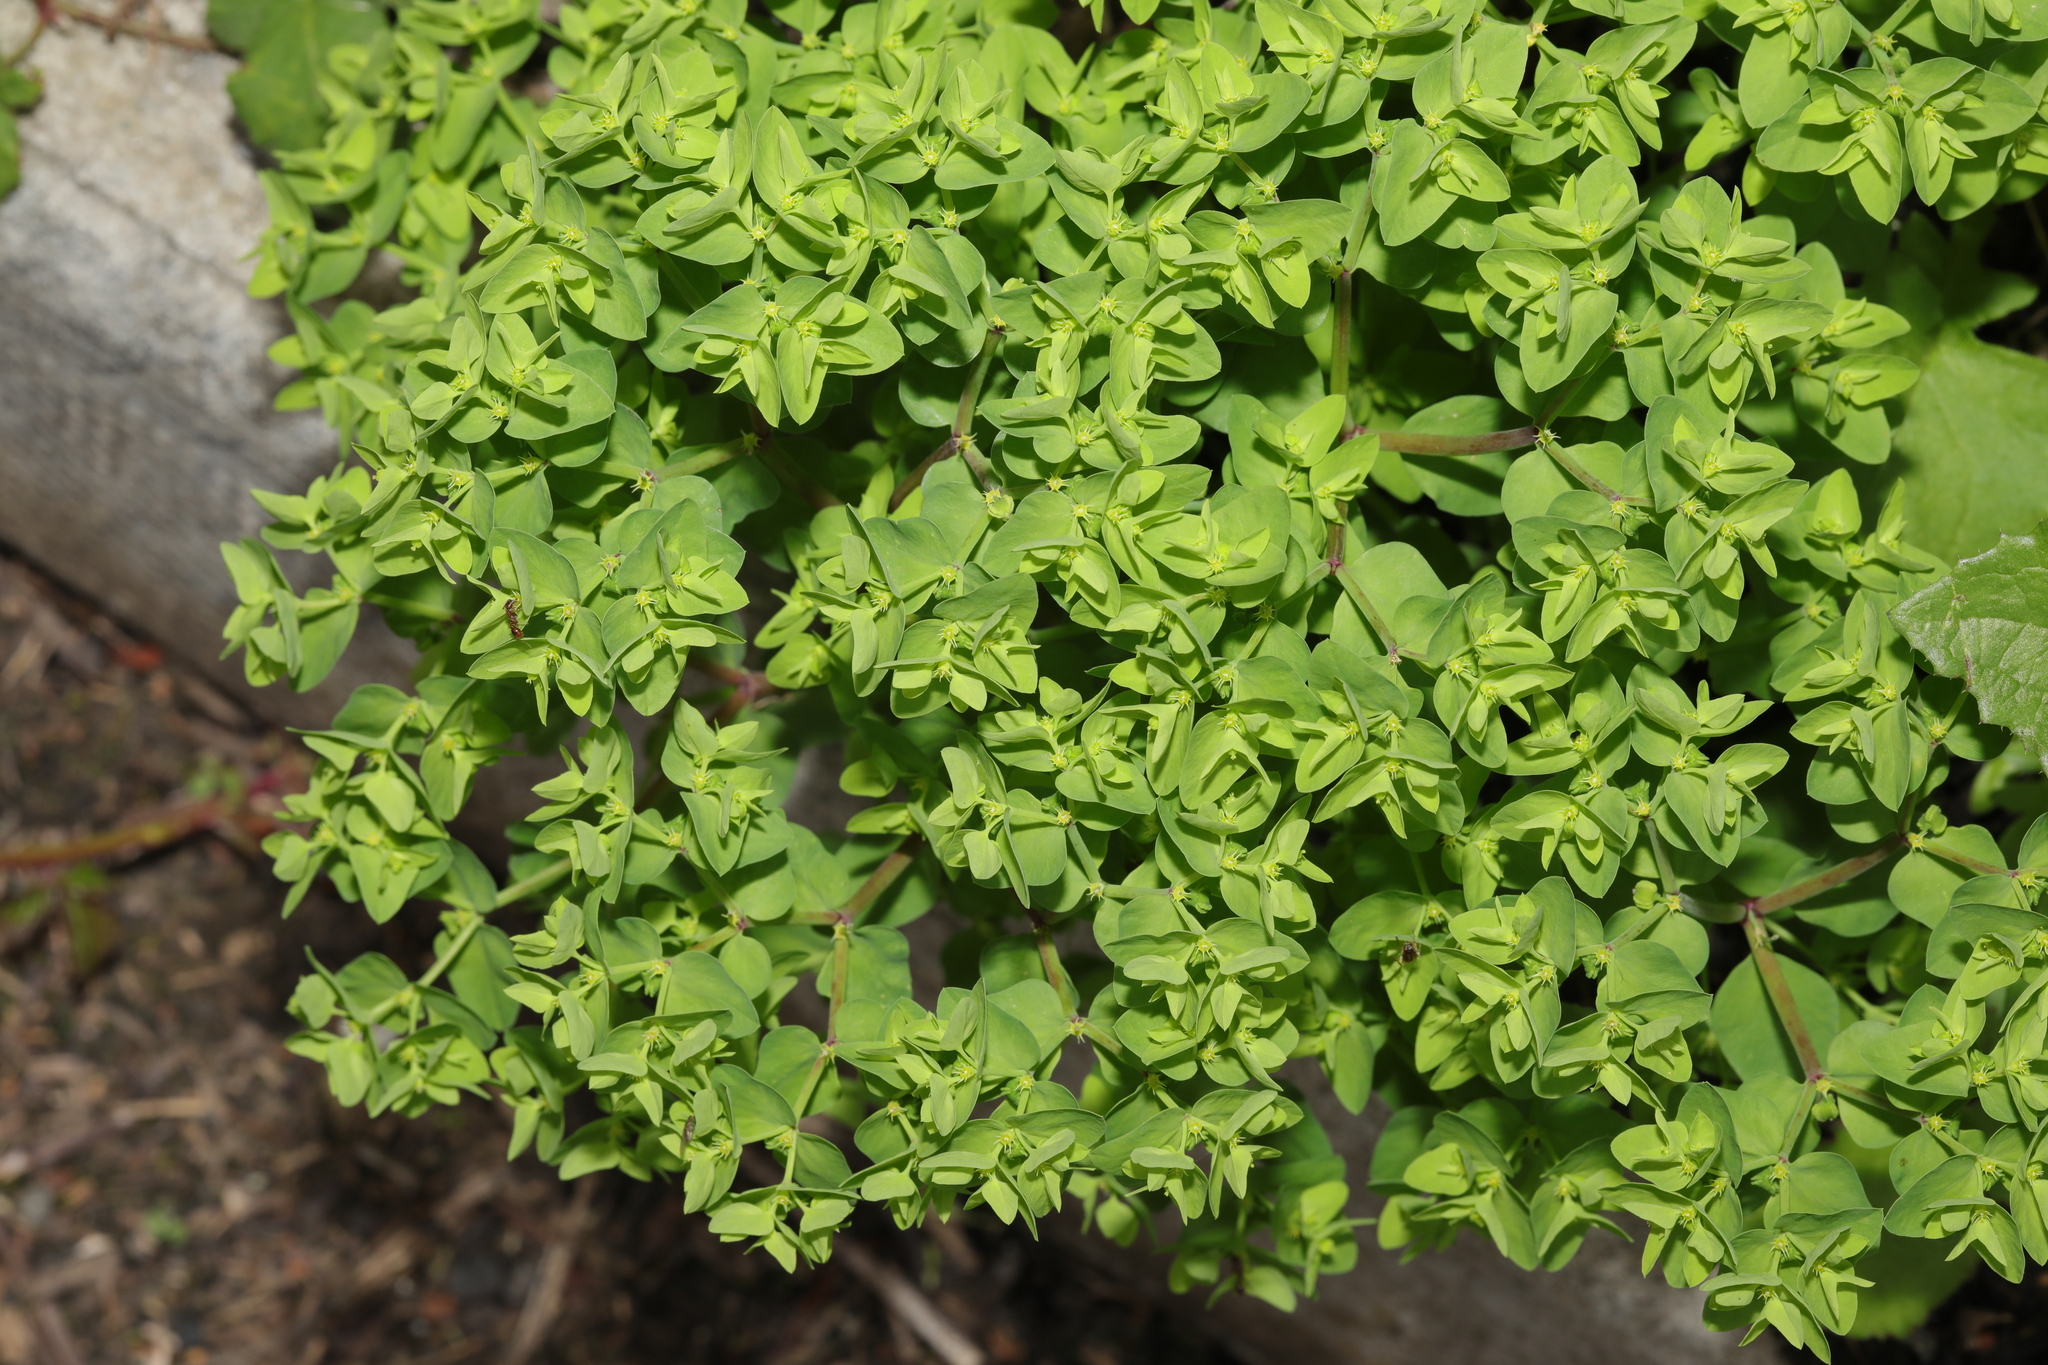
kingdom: Plantae
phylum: Tracheophyta
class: Magnoliopsida
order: Malpighiales
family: Euphorbiaceae
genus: Euphorbia
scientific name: Euphorbia peplus
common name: Petty spurge
